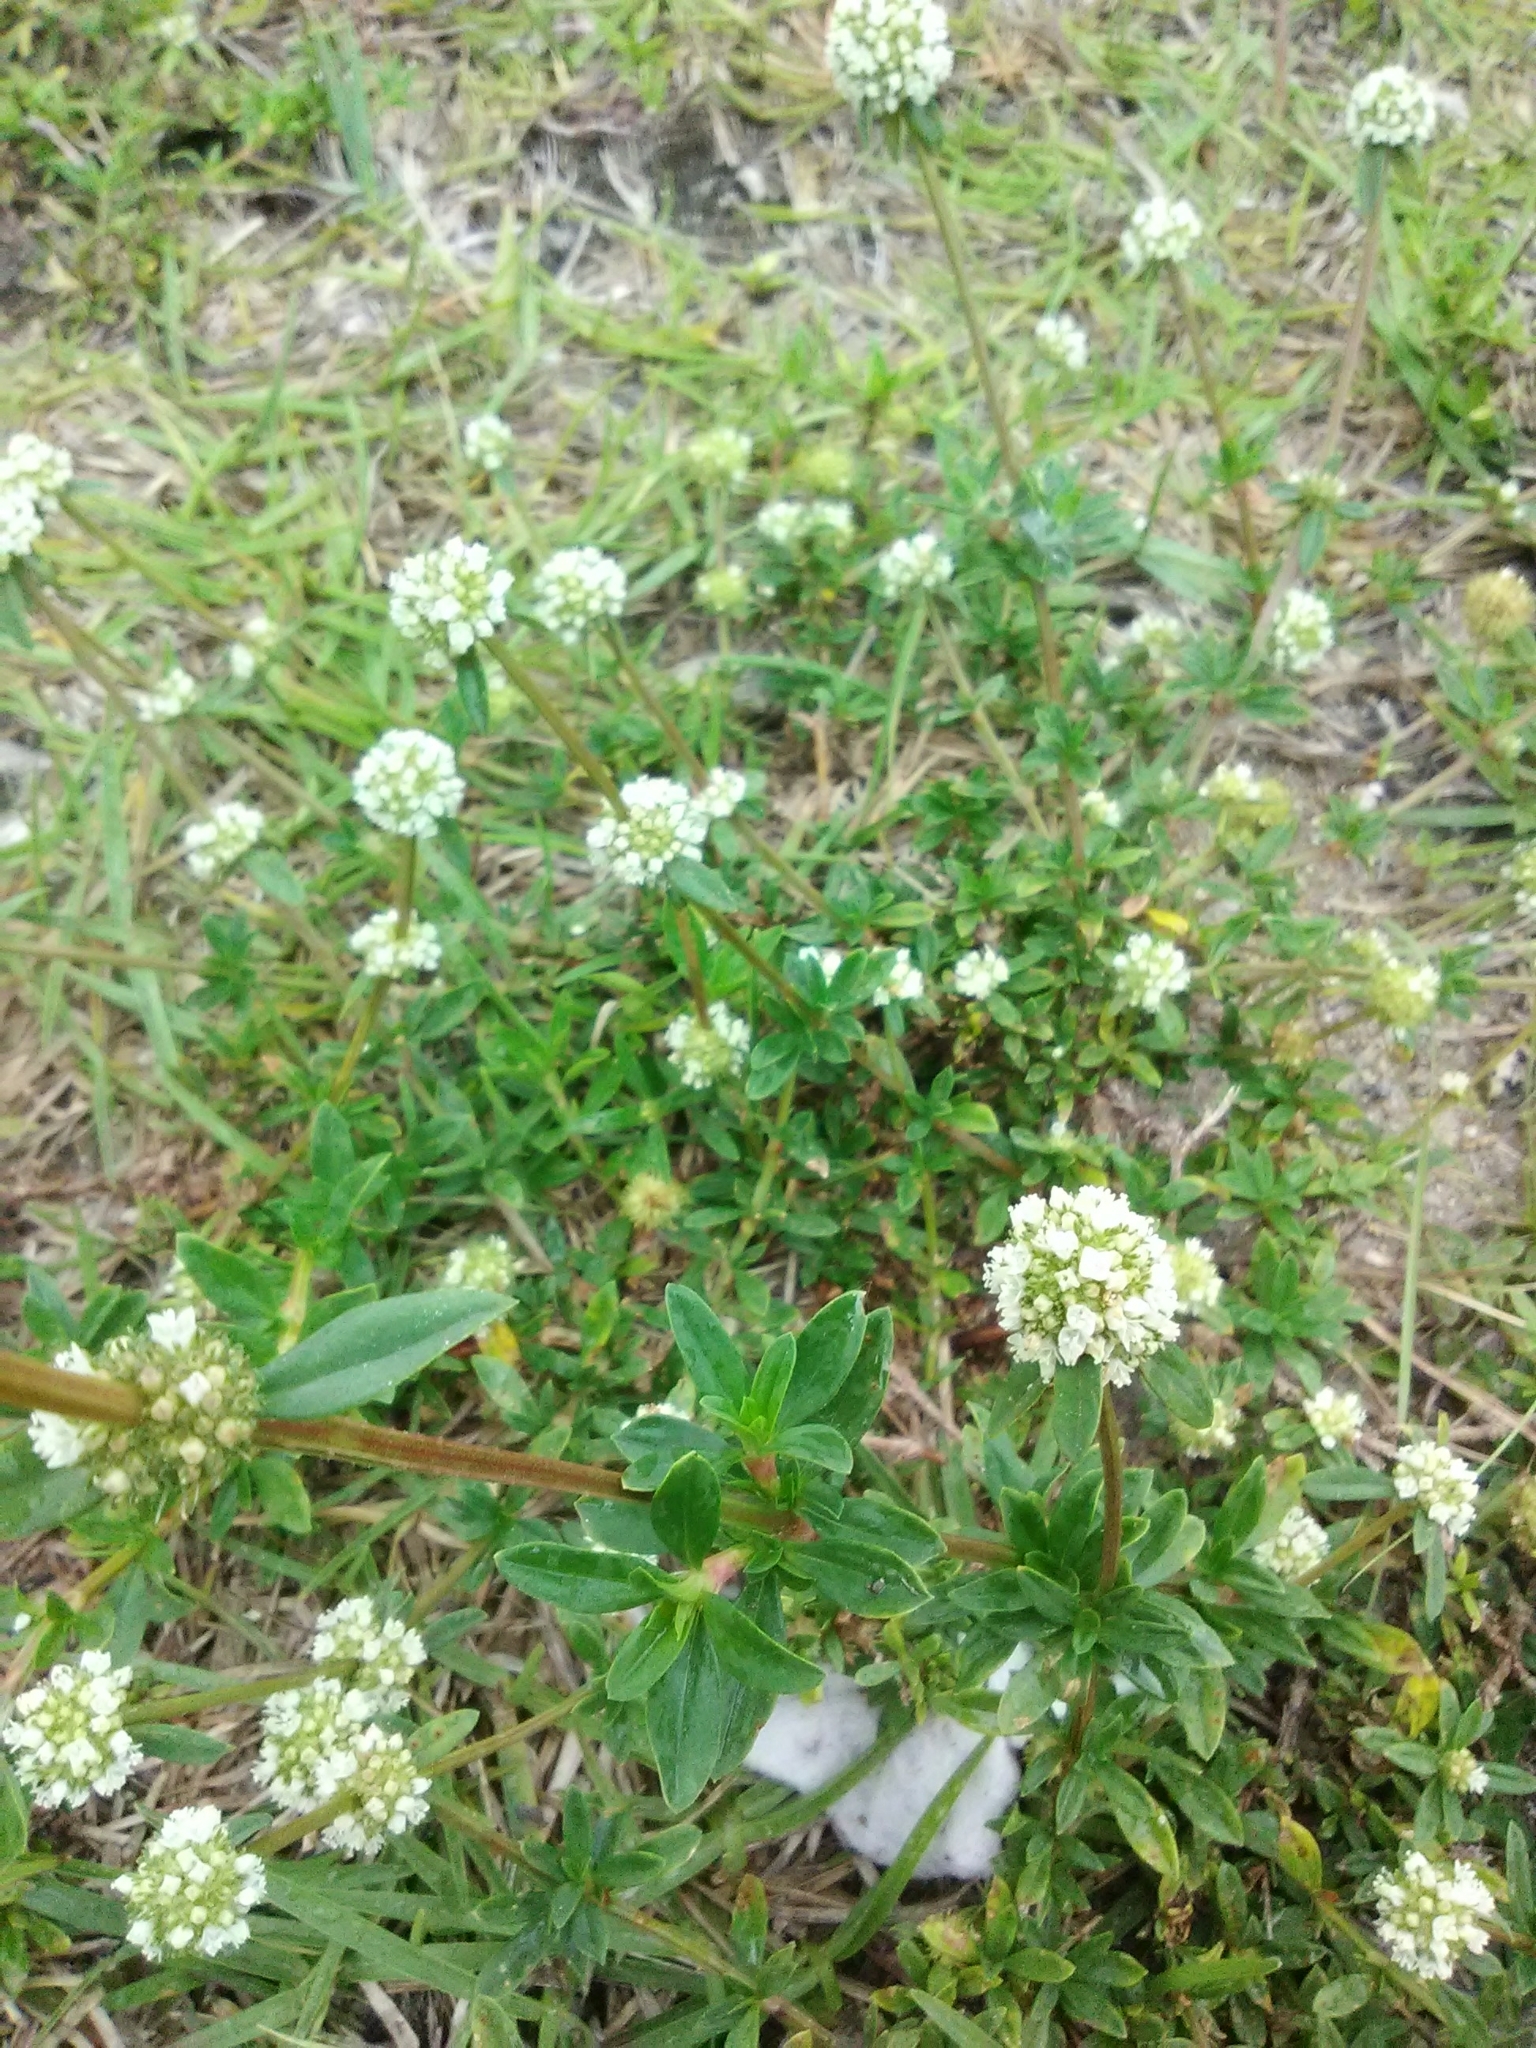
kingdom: Plantae
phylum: Tracheophyta
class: Magnoliopsida
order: Gentianales
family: Rubiaceae
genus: Spermacoce
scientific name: Spermacoce verticillata
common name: Shrubby false buttonweed
